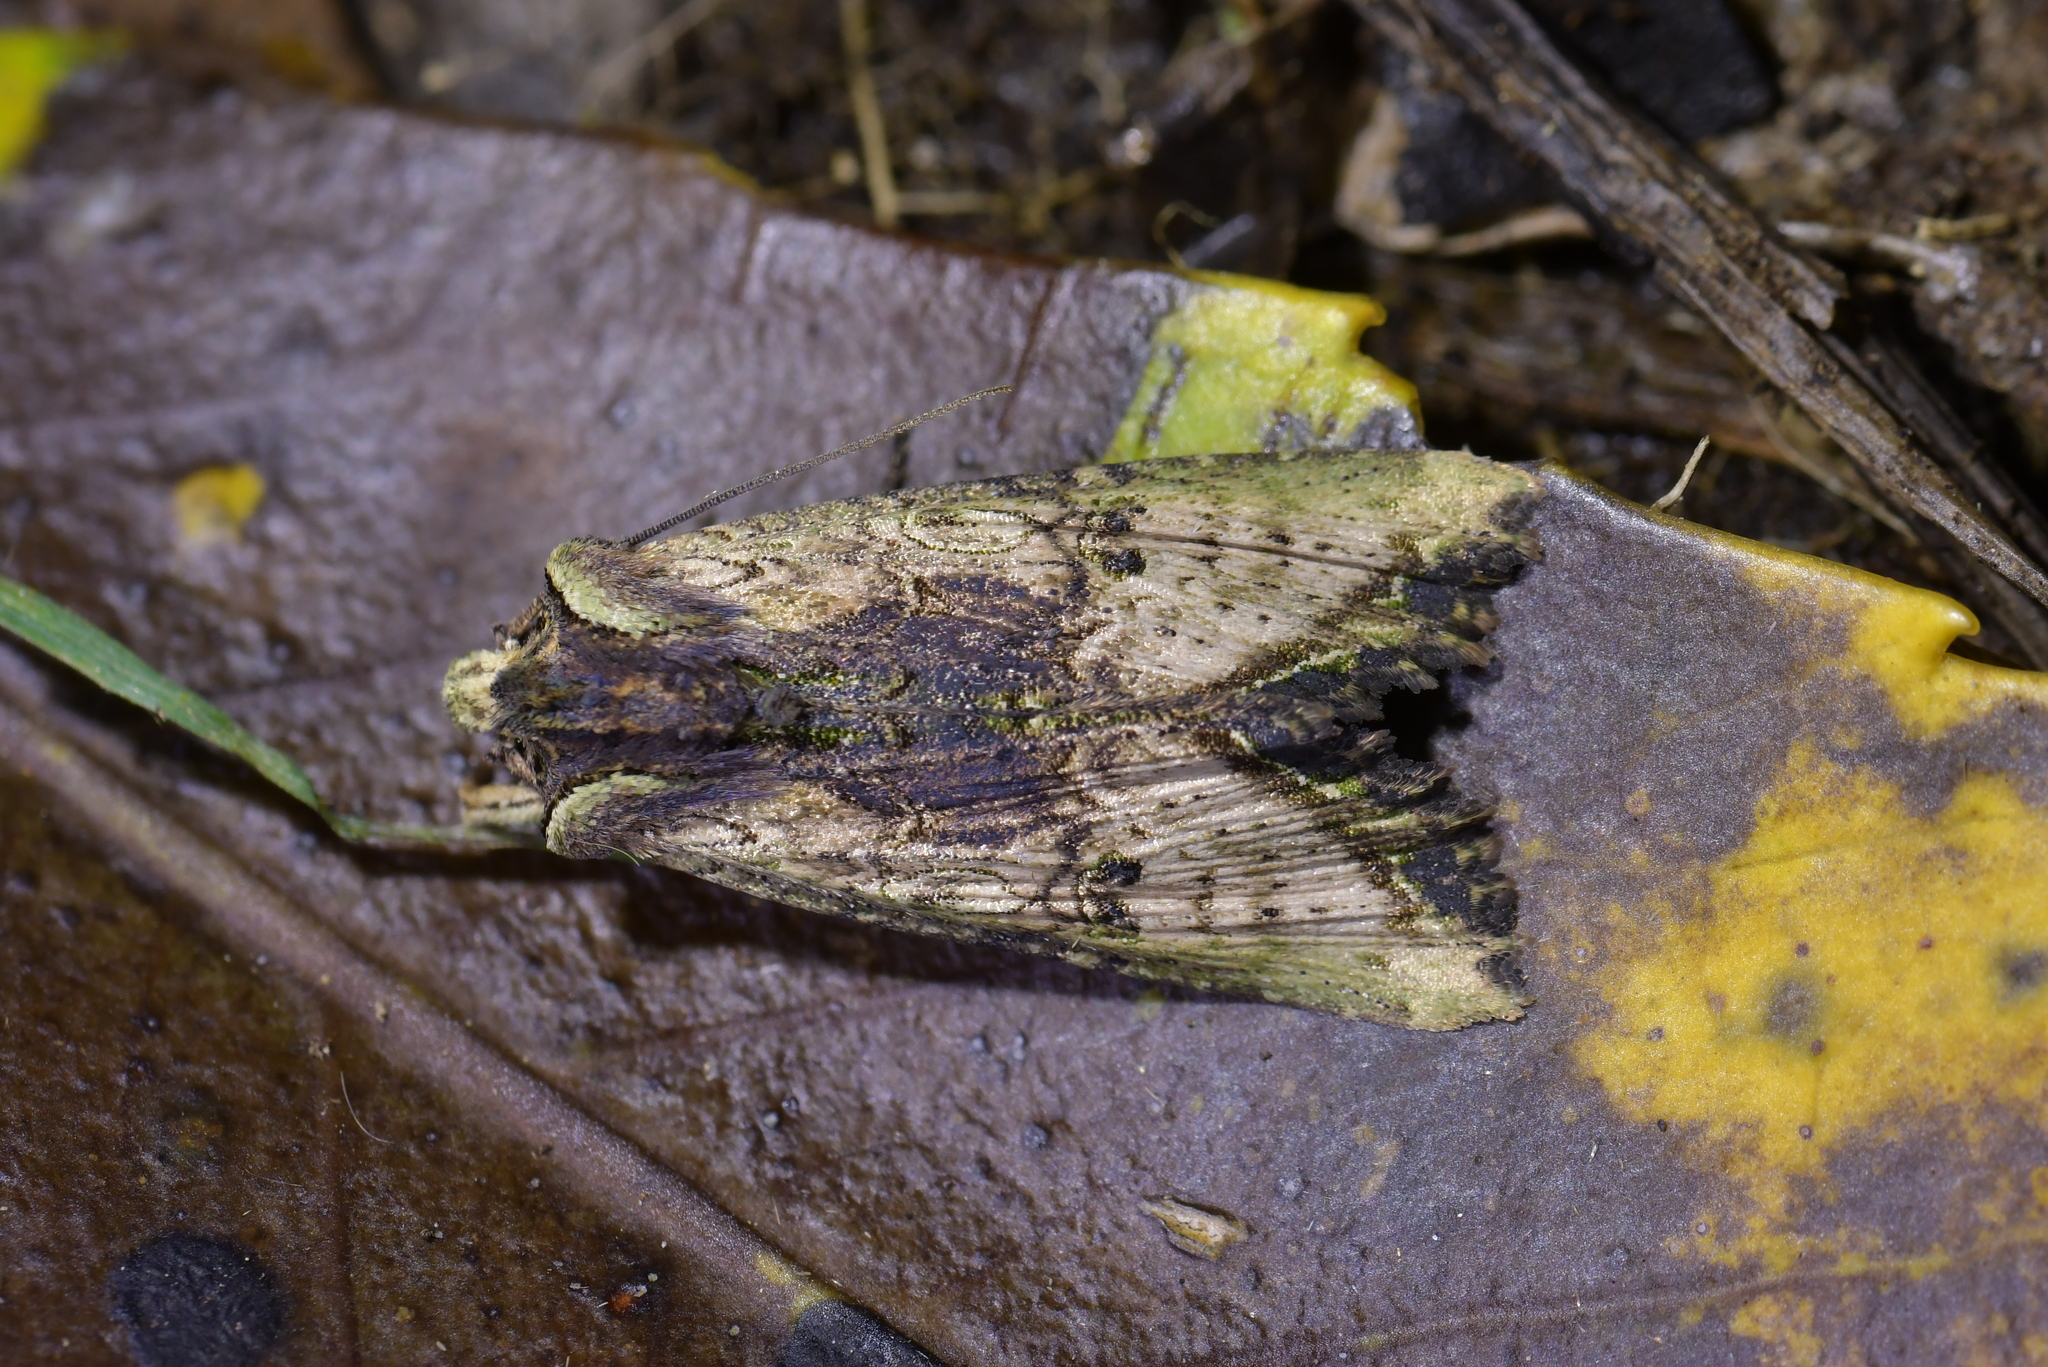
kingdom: Animalia
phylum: Arthropoda
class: Insecta
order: Lepidoptera
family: Noctuidae
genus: Meterana
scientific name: Meterana coeleno
